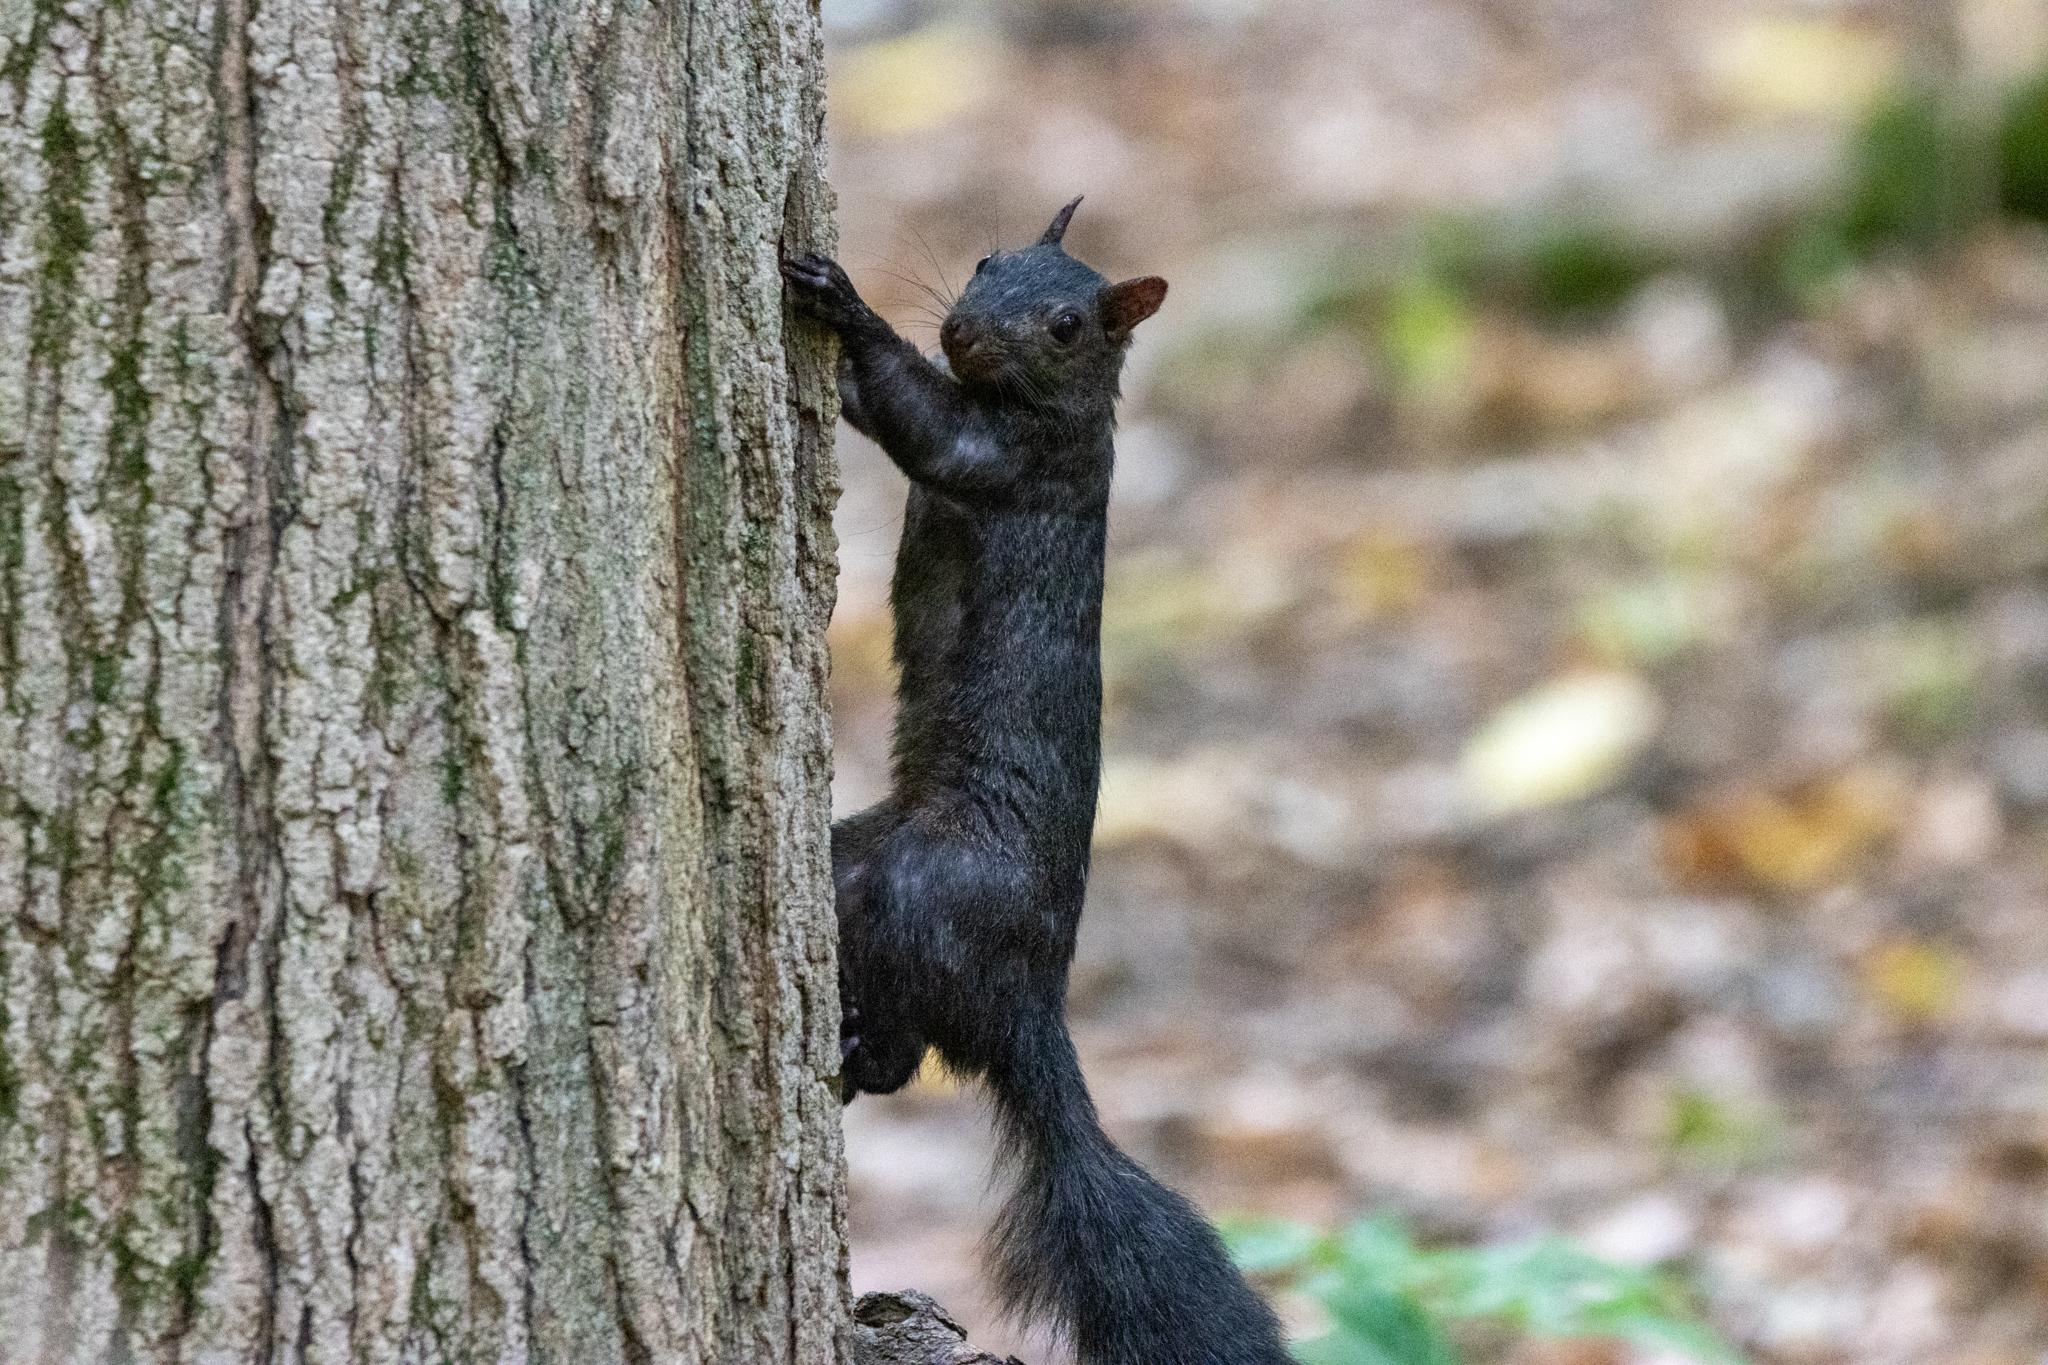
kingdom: Animalia
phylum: Chordata
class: Mammalia
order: Rodentia
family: Sciuridae
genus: Sciurus
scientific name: Sciurus carolinensis
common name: Eastern gray squirrel
